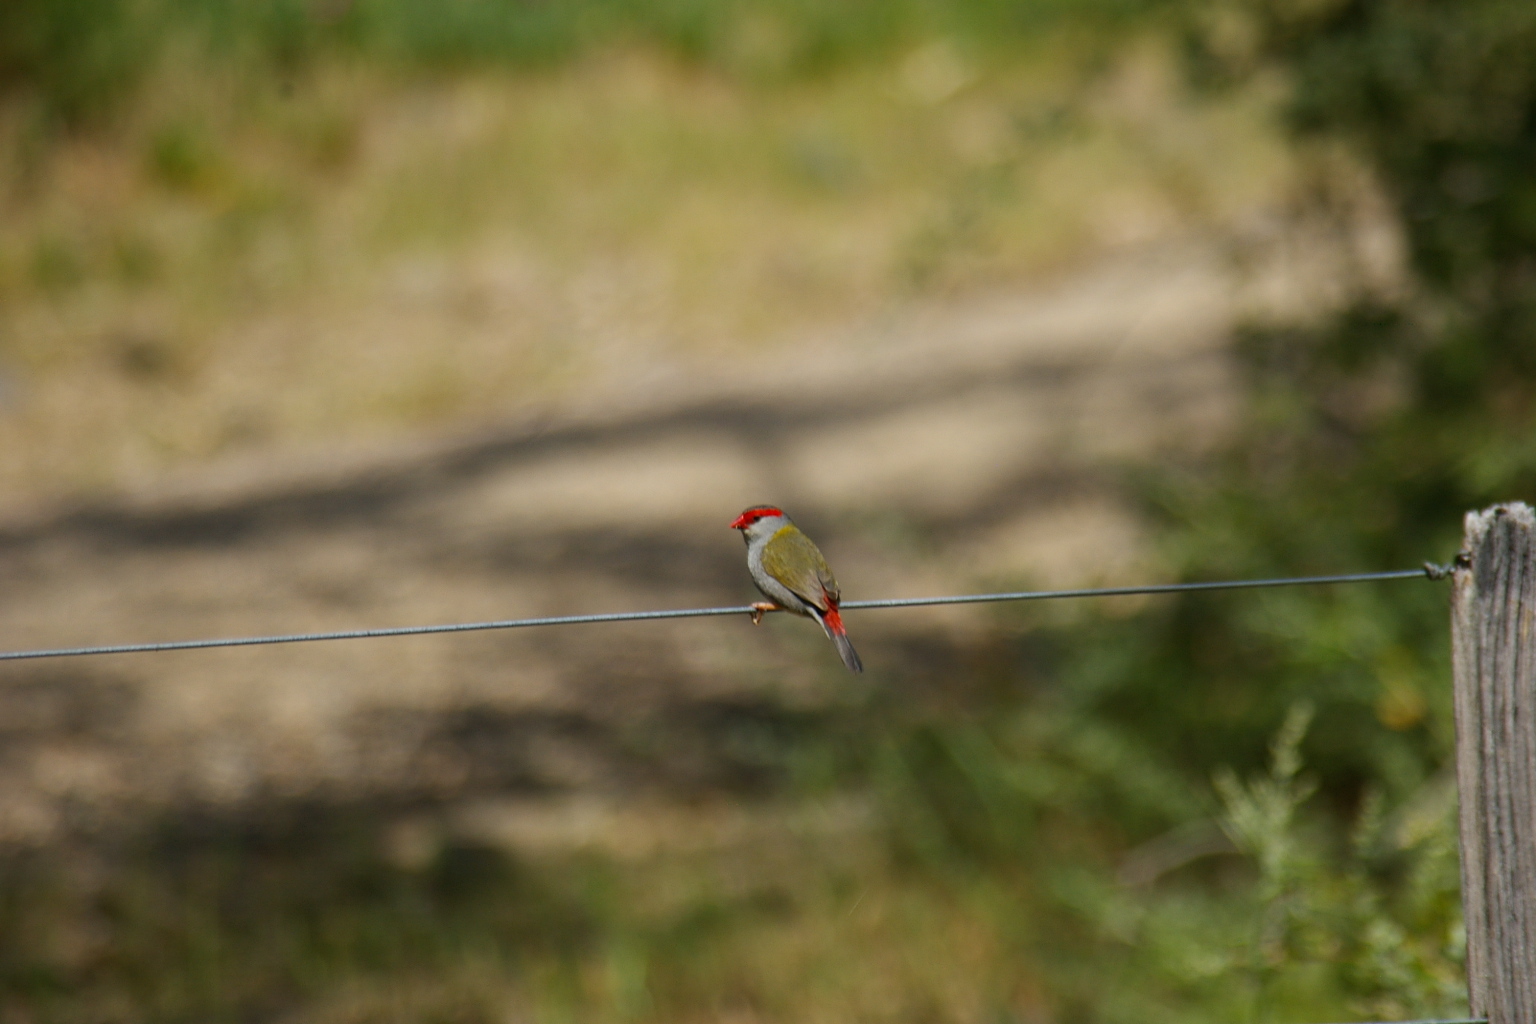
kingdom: Animalia
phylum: Chordata
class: Aves
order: Passeriformes
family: Estrildidae
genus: Neochmia
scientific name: Neochmia temporalis
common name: Red-browed finch
